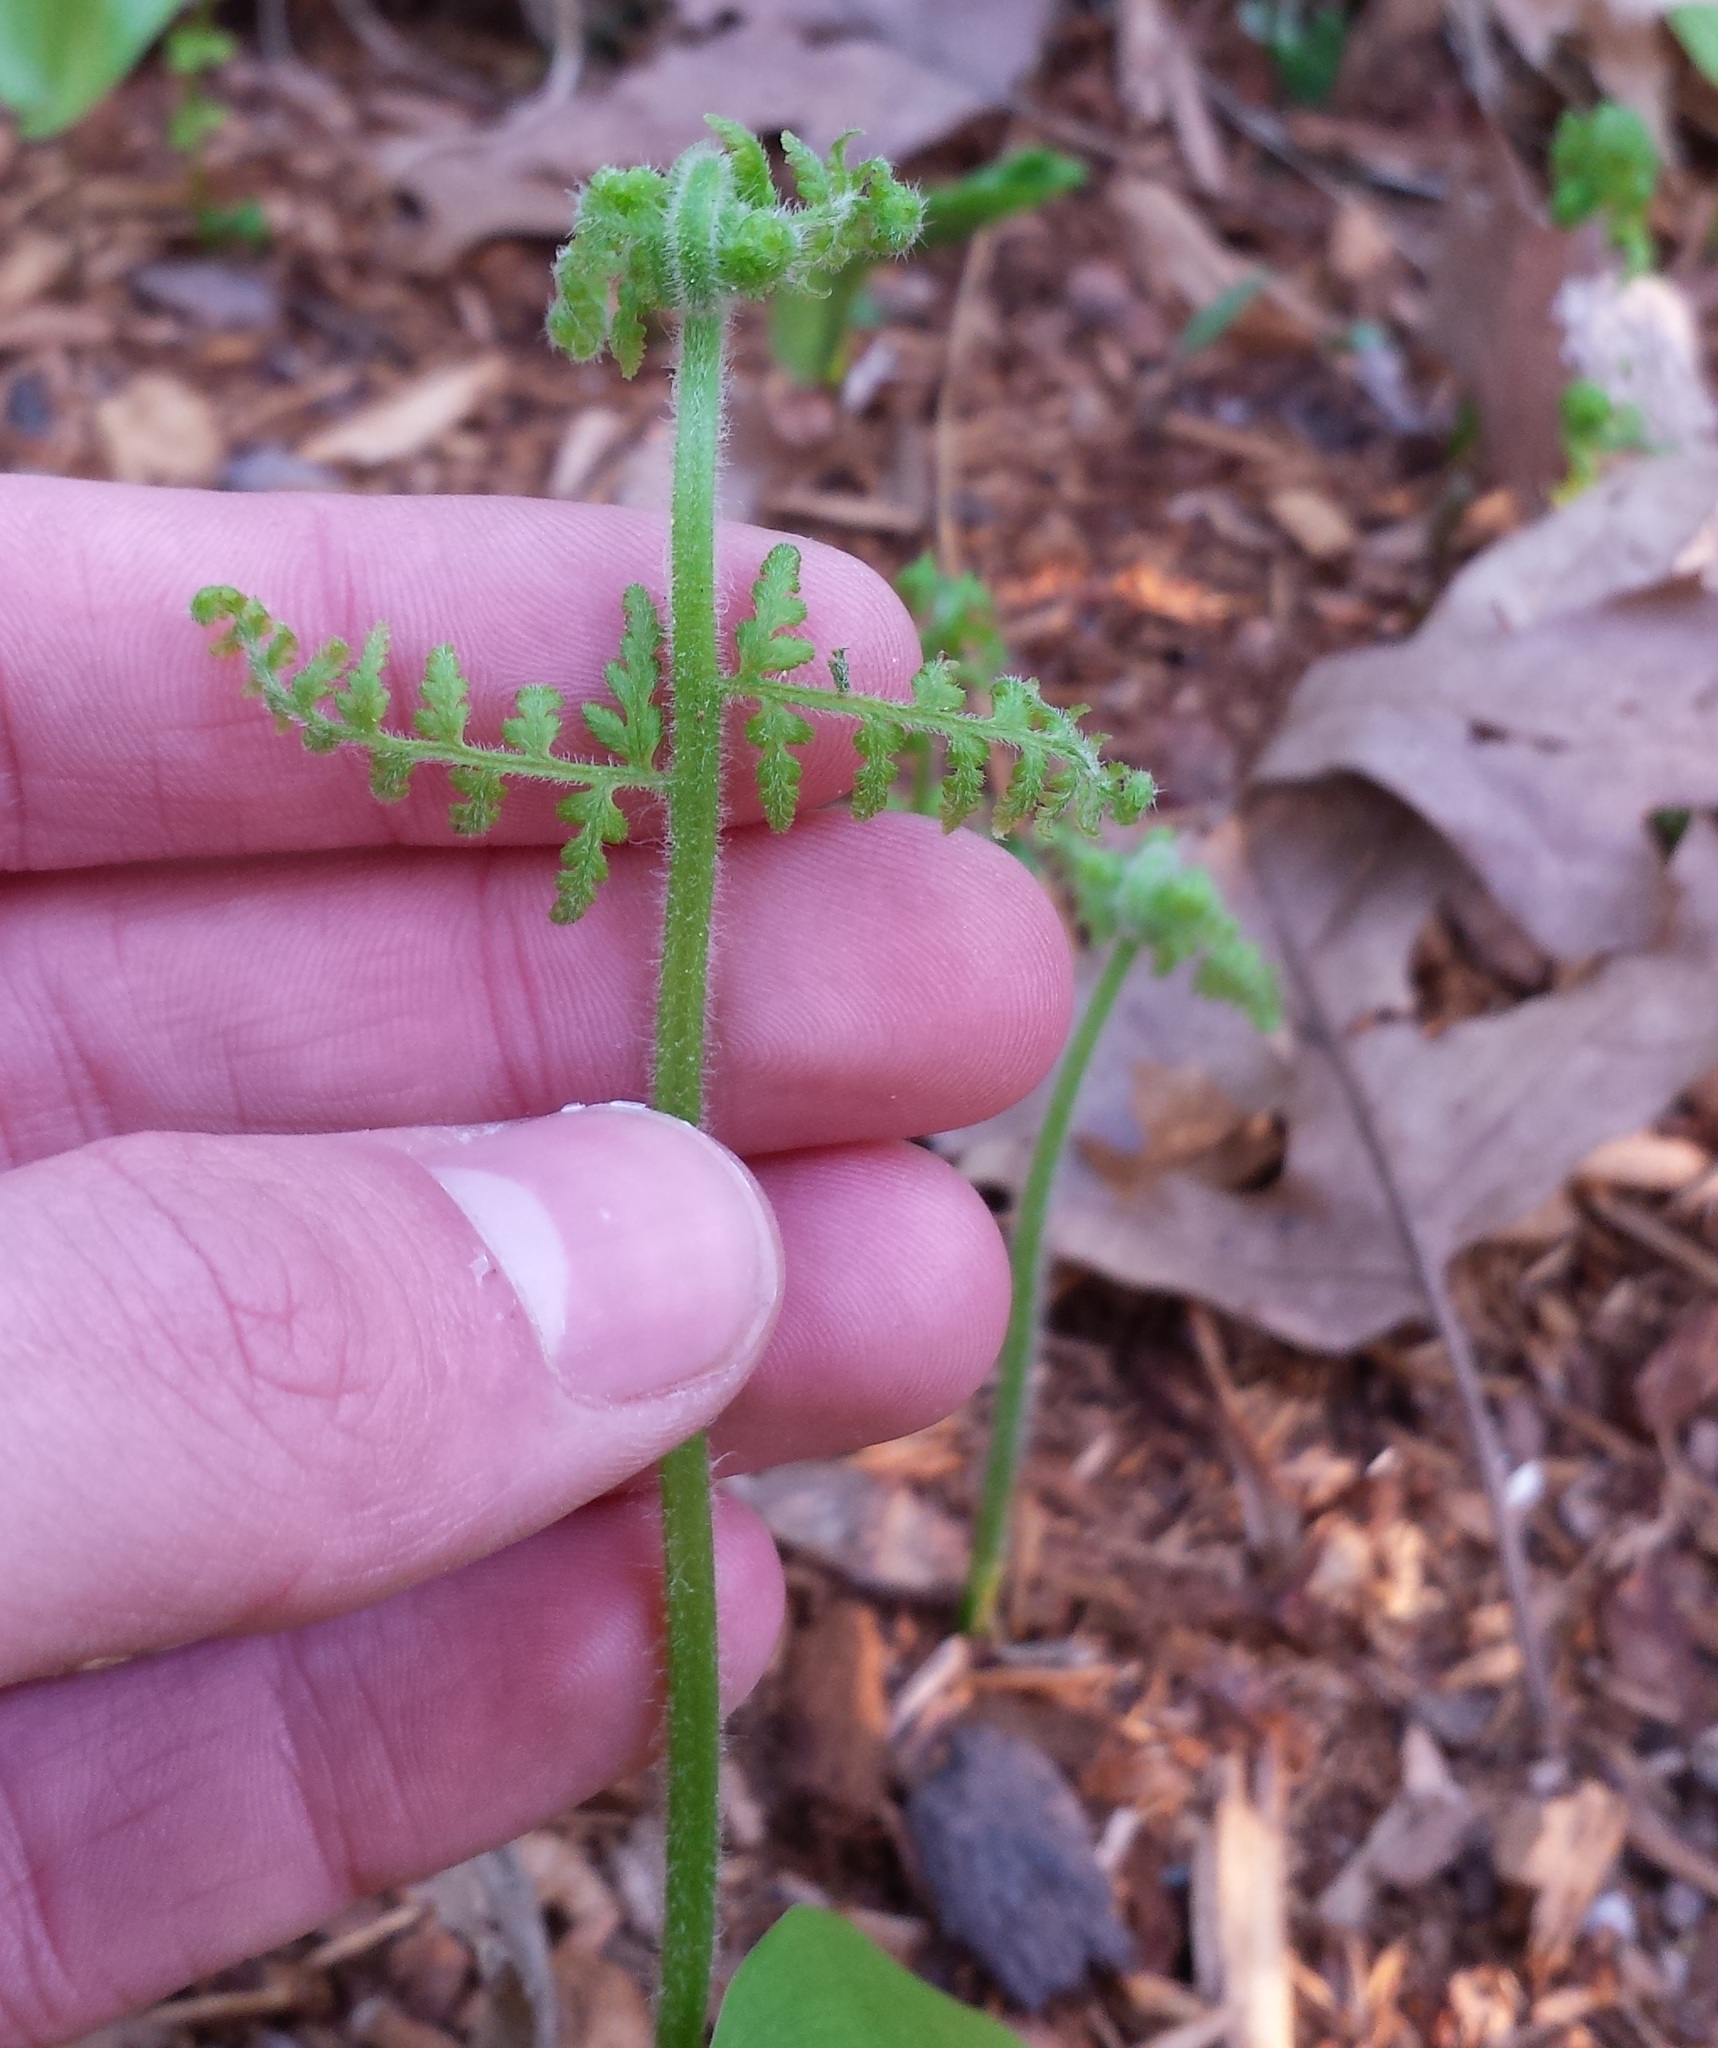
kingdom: Plantae
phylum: Tracheophyta
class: Polypodiopsida
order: Polypodiales
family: Dennstaedtiaceae
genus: Sitobolium
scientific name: Sitobolium punctilobum
